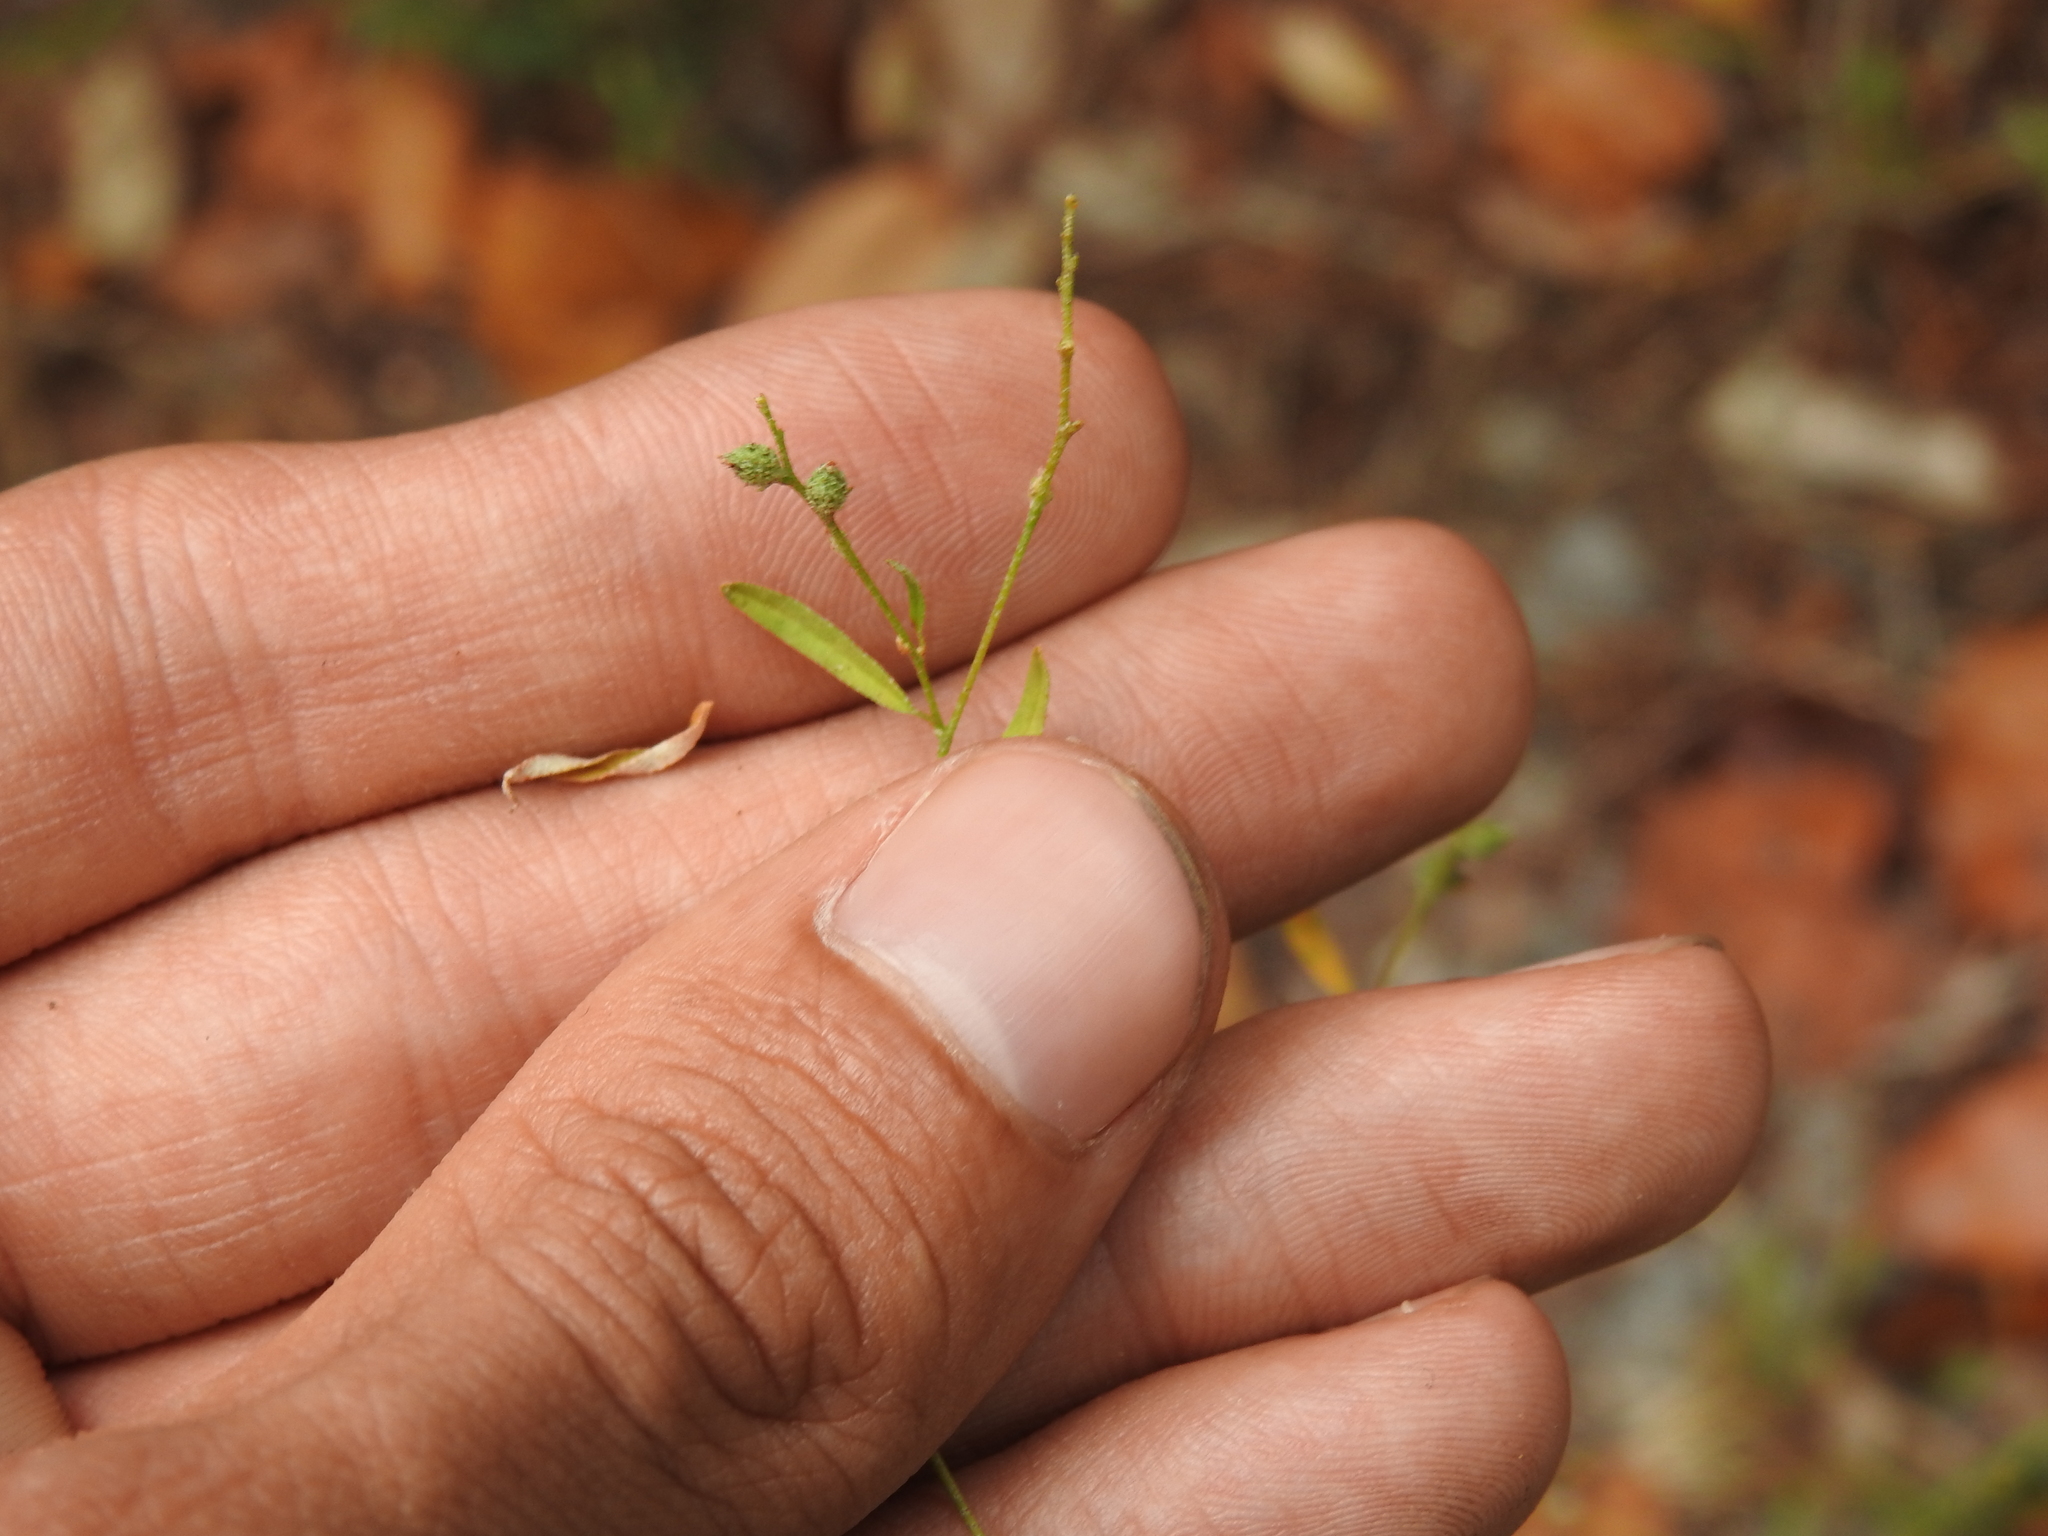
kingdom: Plantae
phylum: Tracheophyta
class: Magnoliopsida
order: Malpighiales
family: Euphorbiaceae
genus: Croton
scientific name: Croton michauxii
